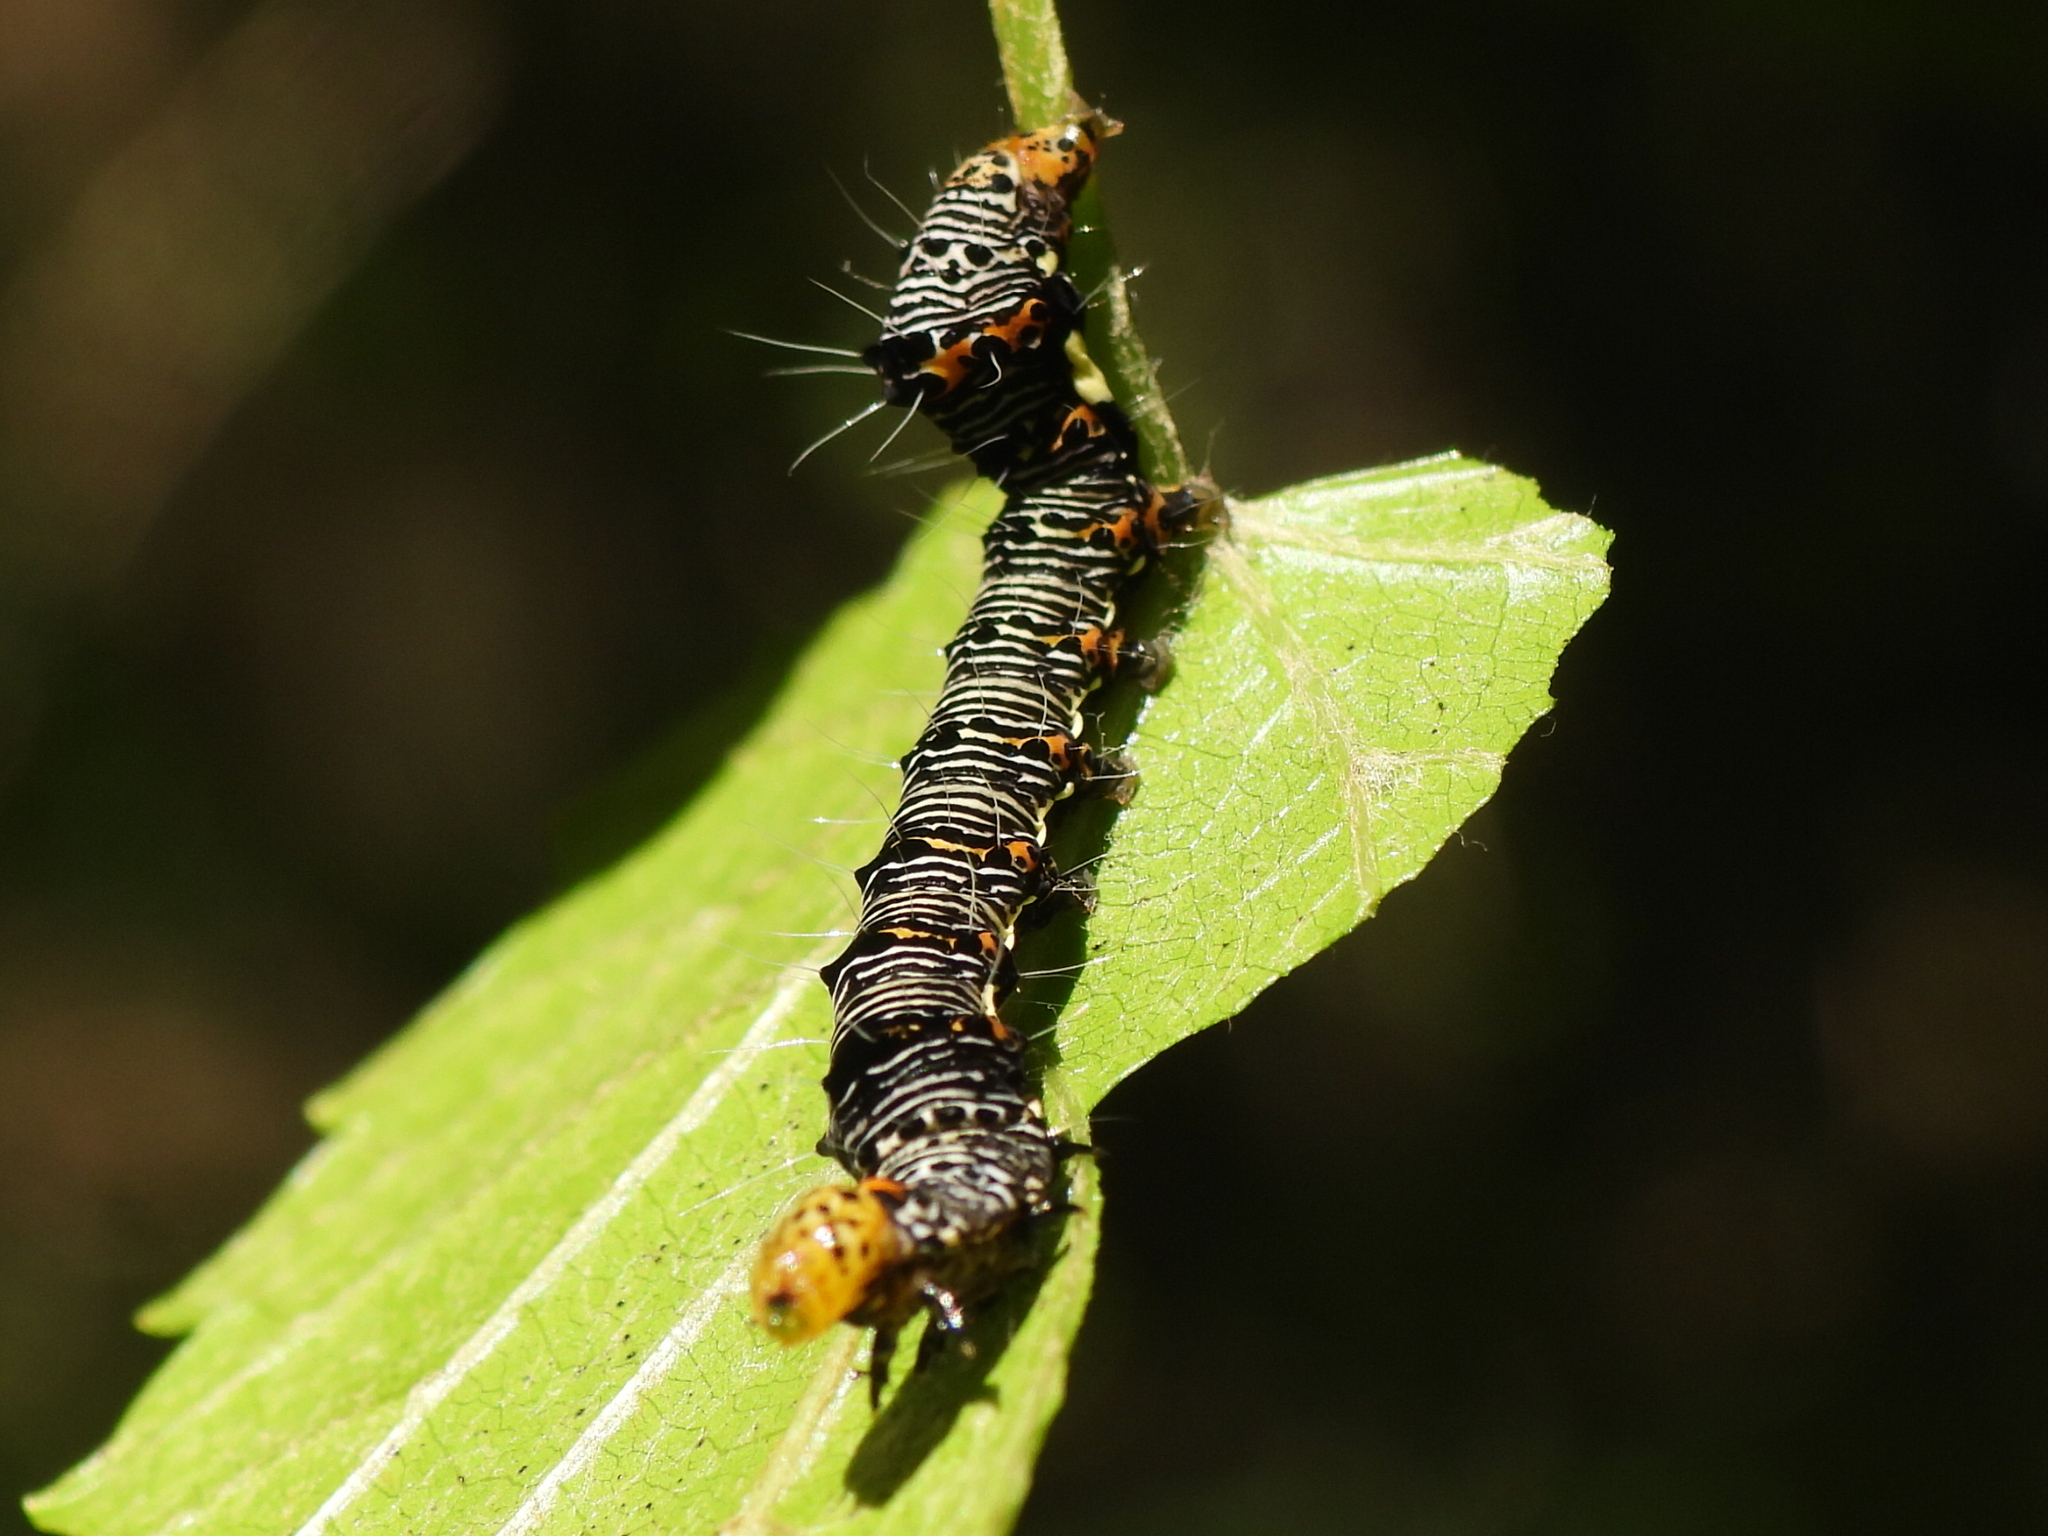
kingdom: Animalia
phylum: Arthropoda
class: Insecta
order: Lepidoptera
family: Noctuidae
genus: Alypia
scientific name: Alypia octomaculata
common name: Eight-spotted forester
